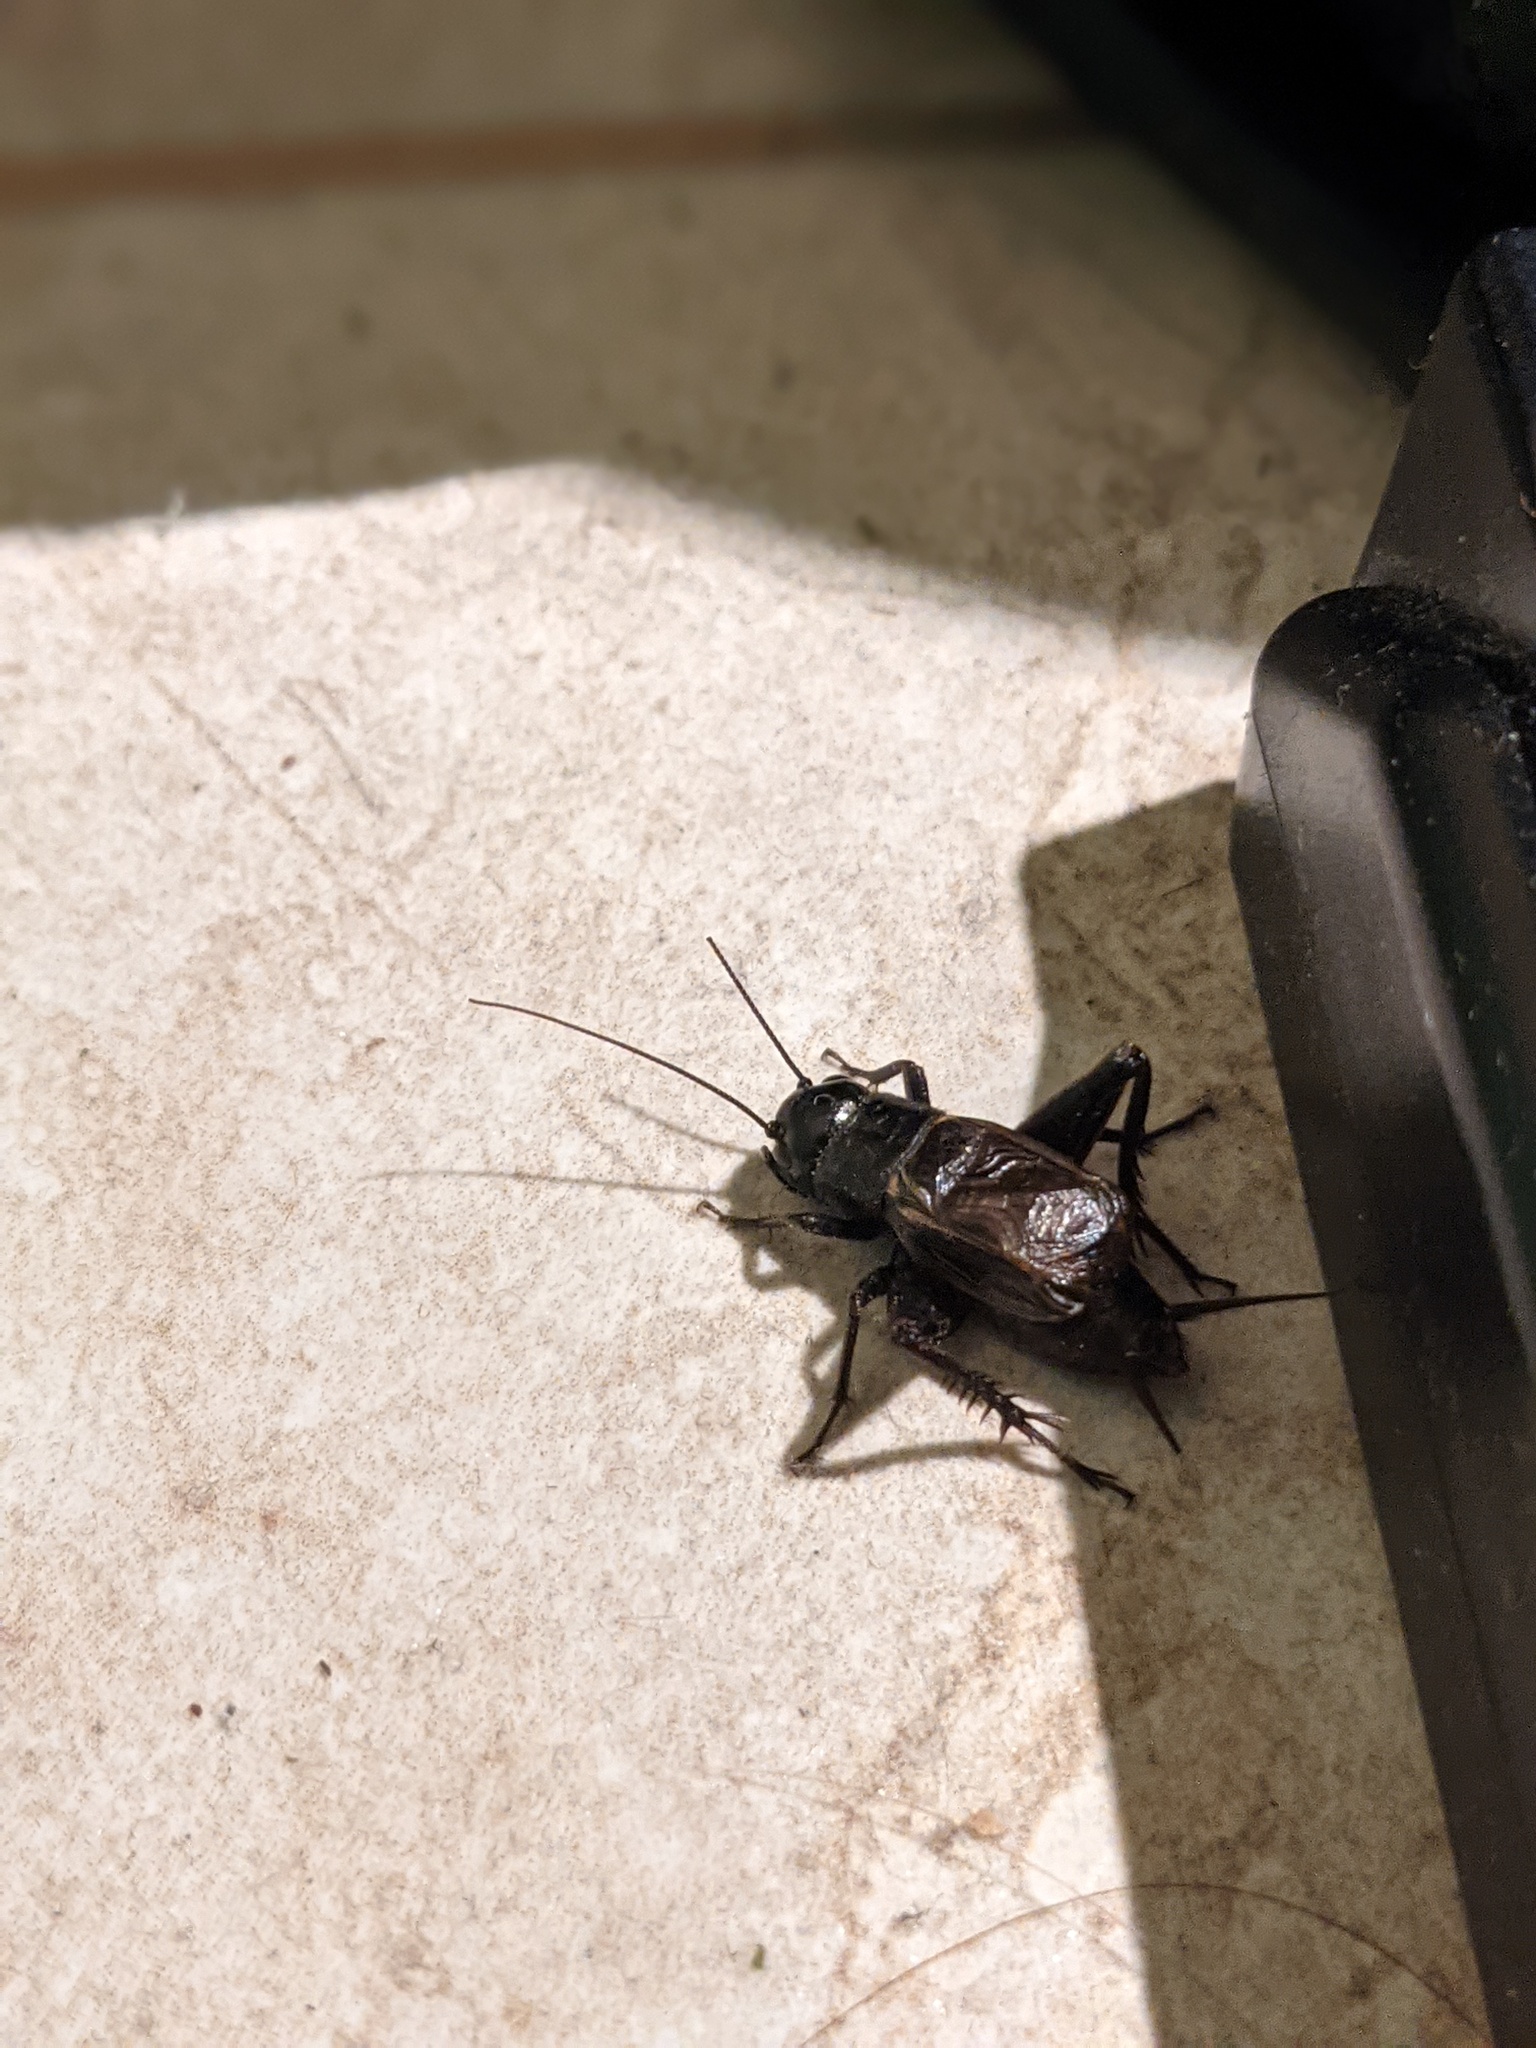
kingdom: Animalia
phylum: Arthropoda
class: Insecta
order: Orthoptera
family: Gryllidae
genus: Gryllus
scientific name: Gryllus pennsylvanicus
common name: Fall field cricket
